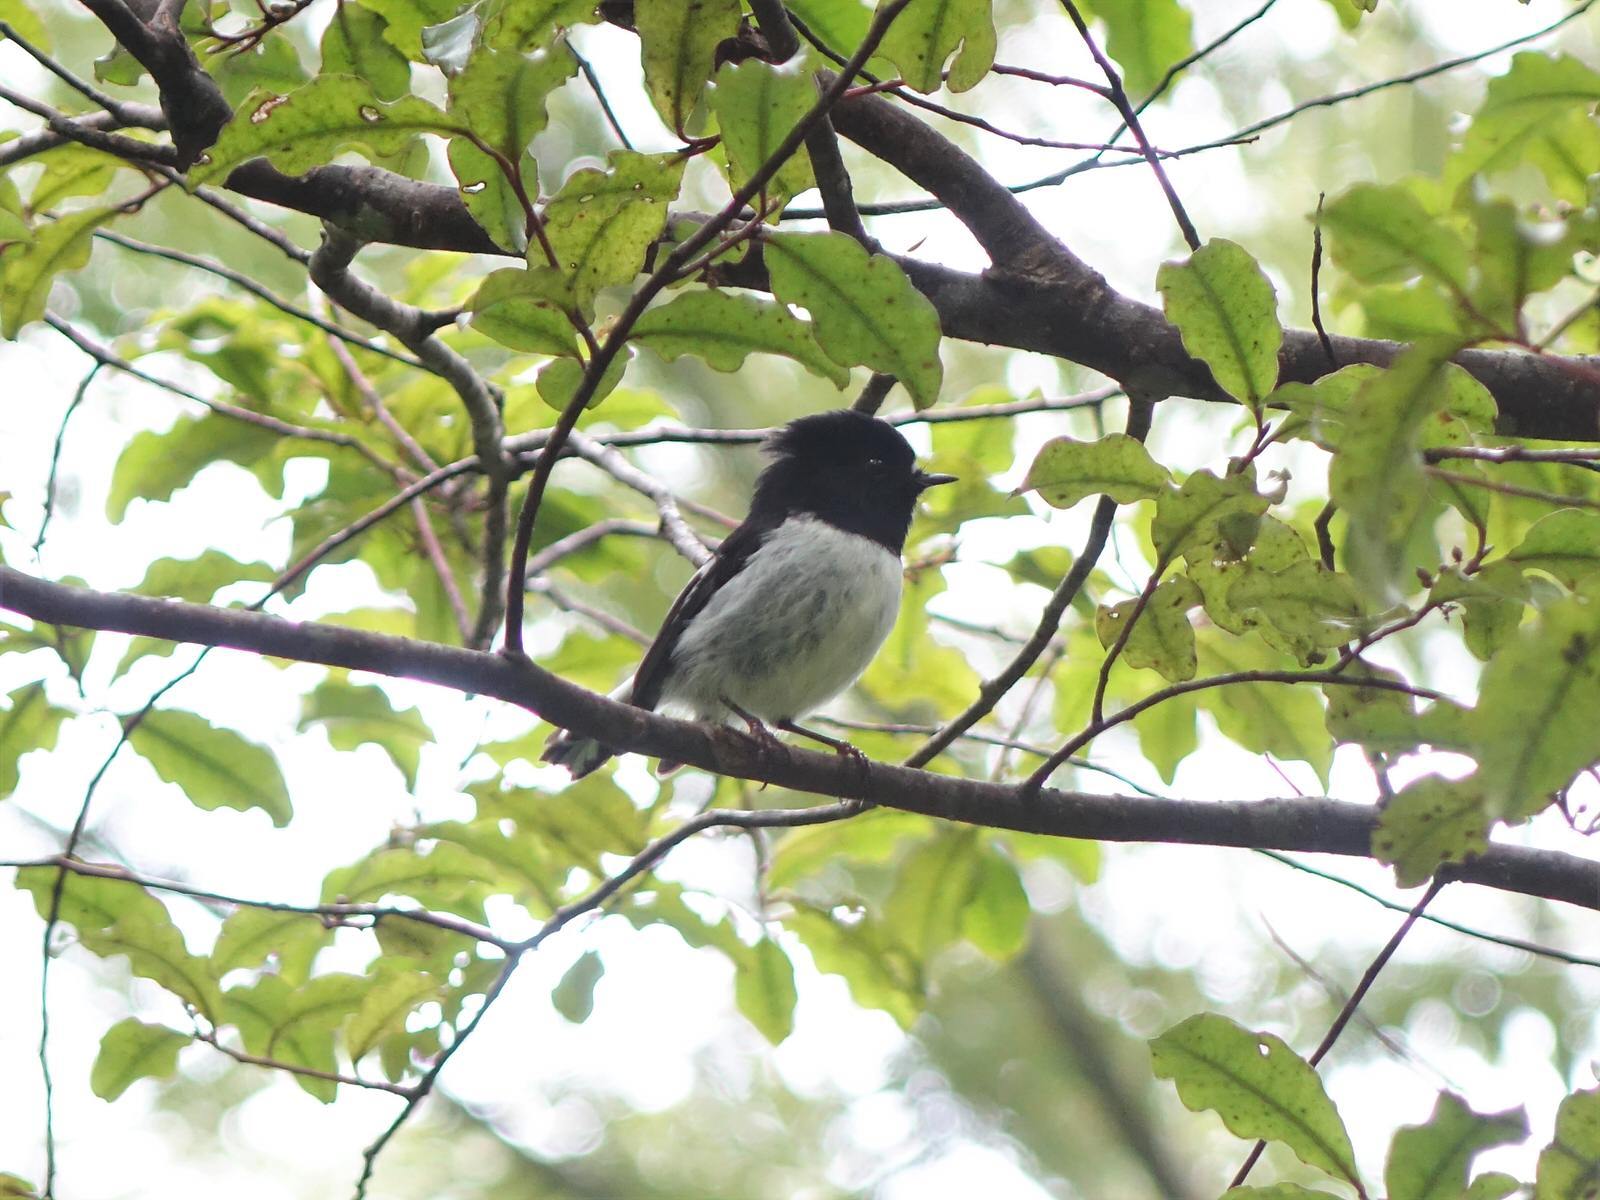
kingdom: Animalia
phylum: Chordata
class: Aves
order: Passeriformes
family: Petroicidae
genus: Petroica
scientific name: Petroica macrocephala
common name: Tomtit
